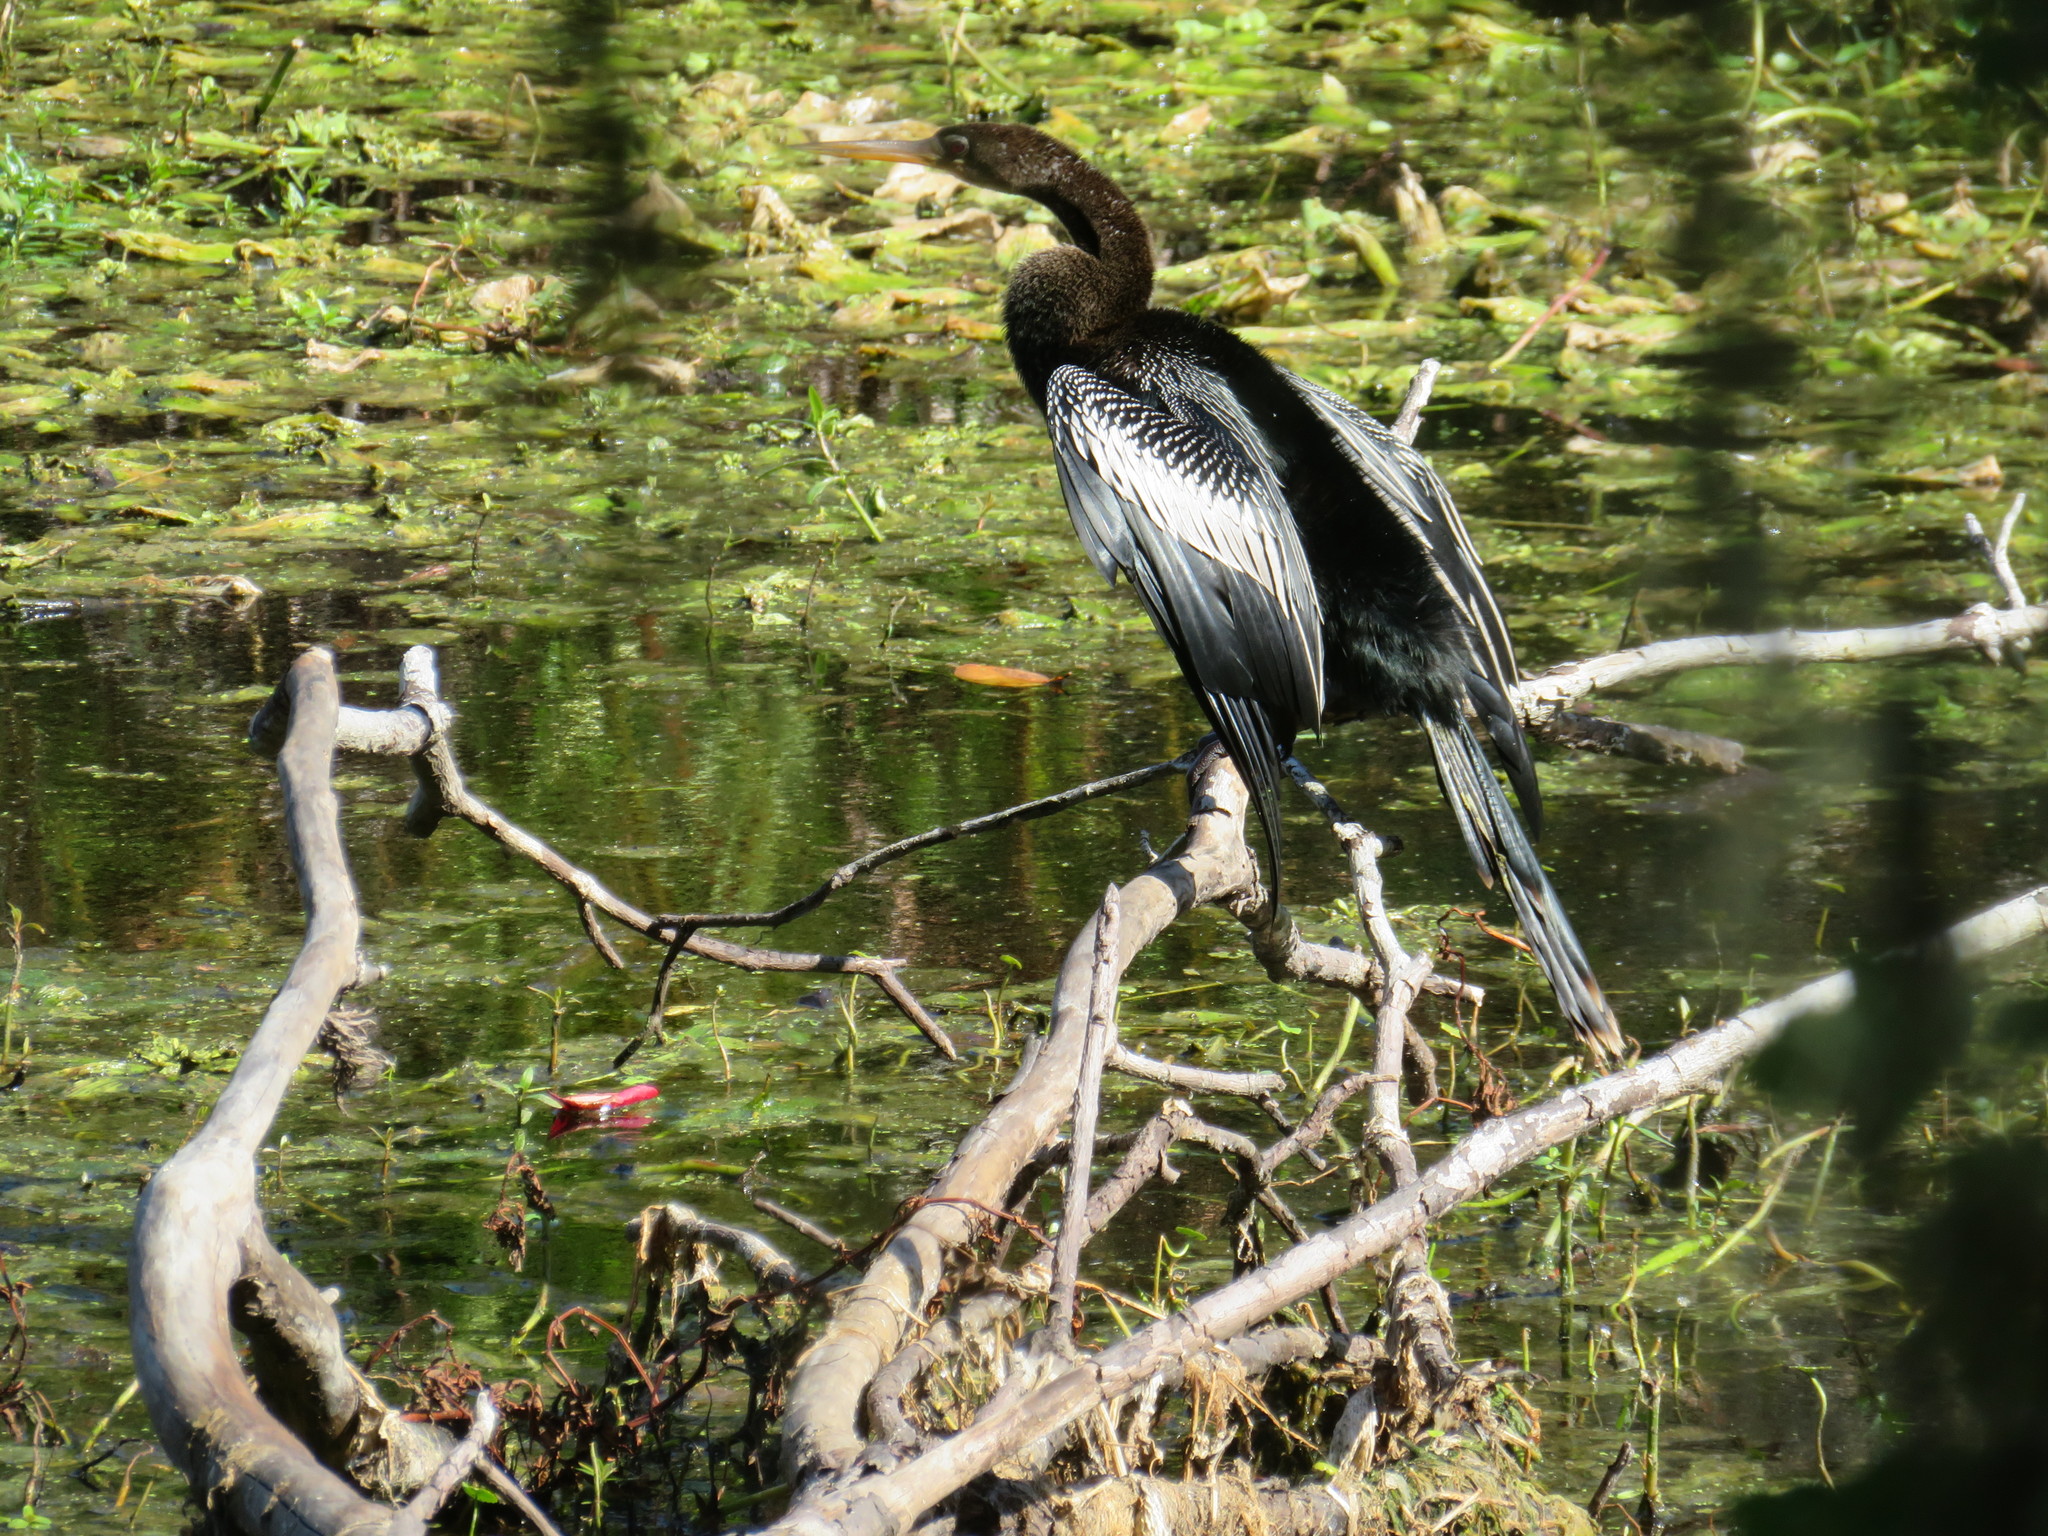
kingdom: Animalia
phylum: Chordata
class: Aves
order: Suliformes
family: Anhingidae
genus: Anhinga
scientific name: Anhinga anhinga
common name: Anhinga
